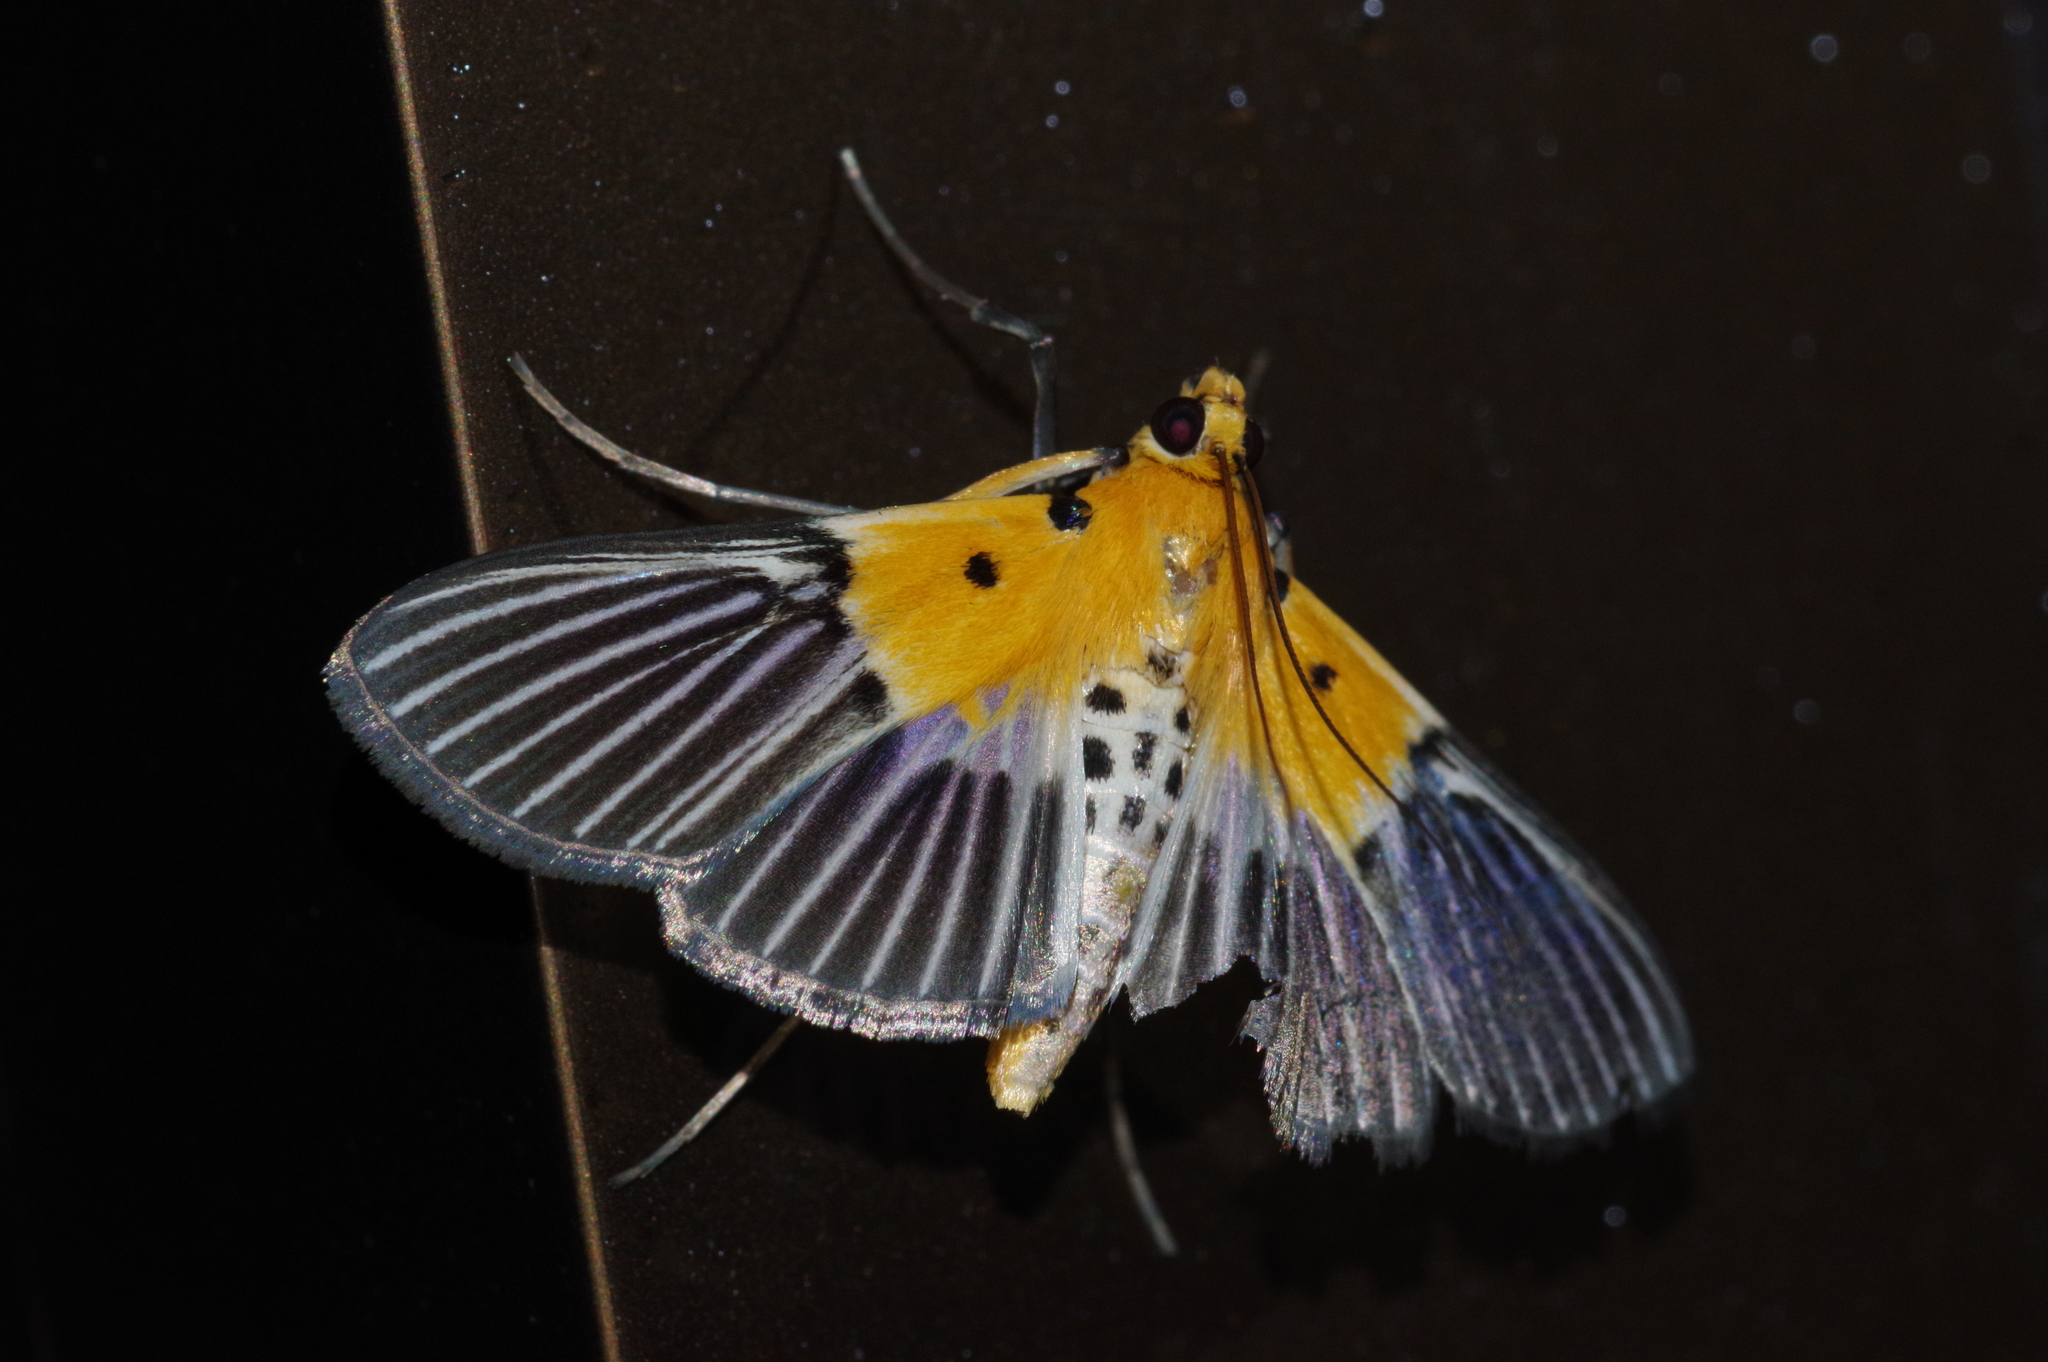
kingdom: Animalia
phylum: Arthropoda
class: Insecta
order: Lepidoptera
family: Crambidae
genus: Nevrina
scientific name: Nevrina procopia
